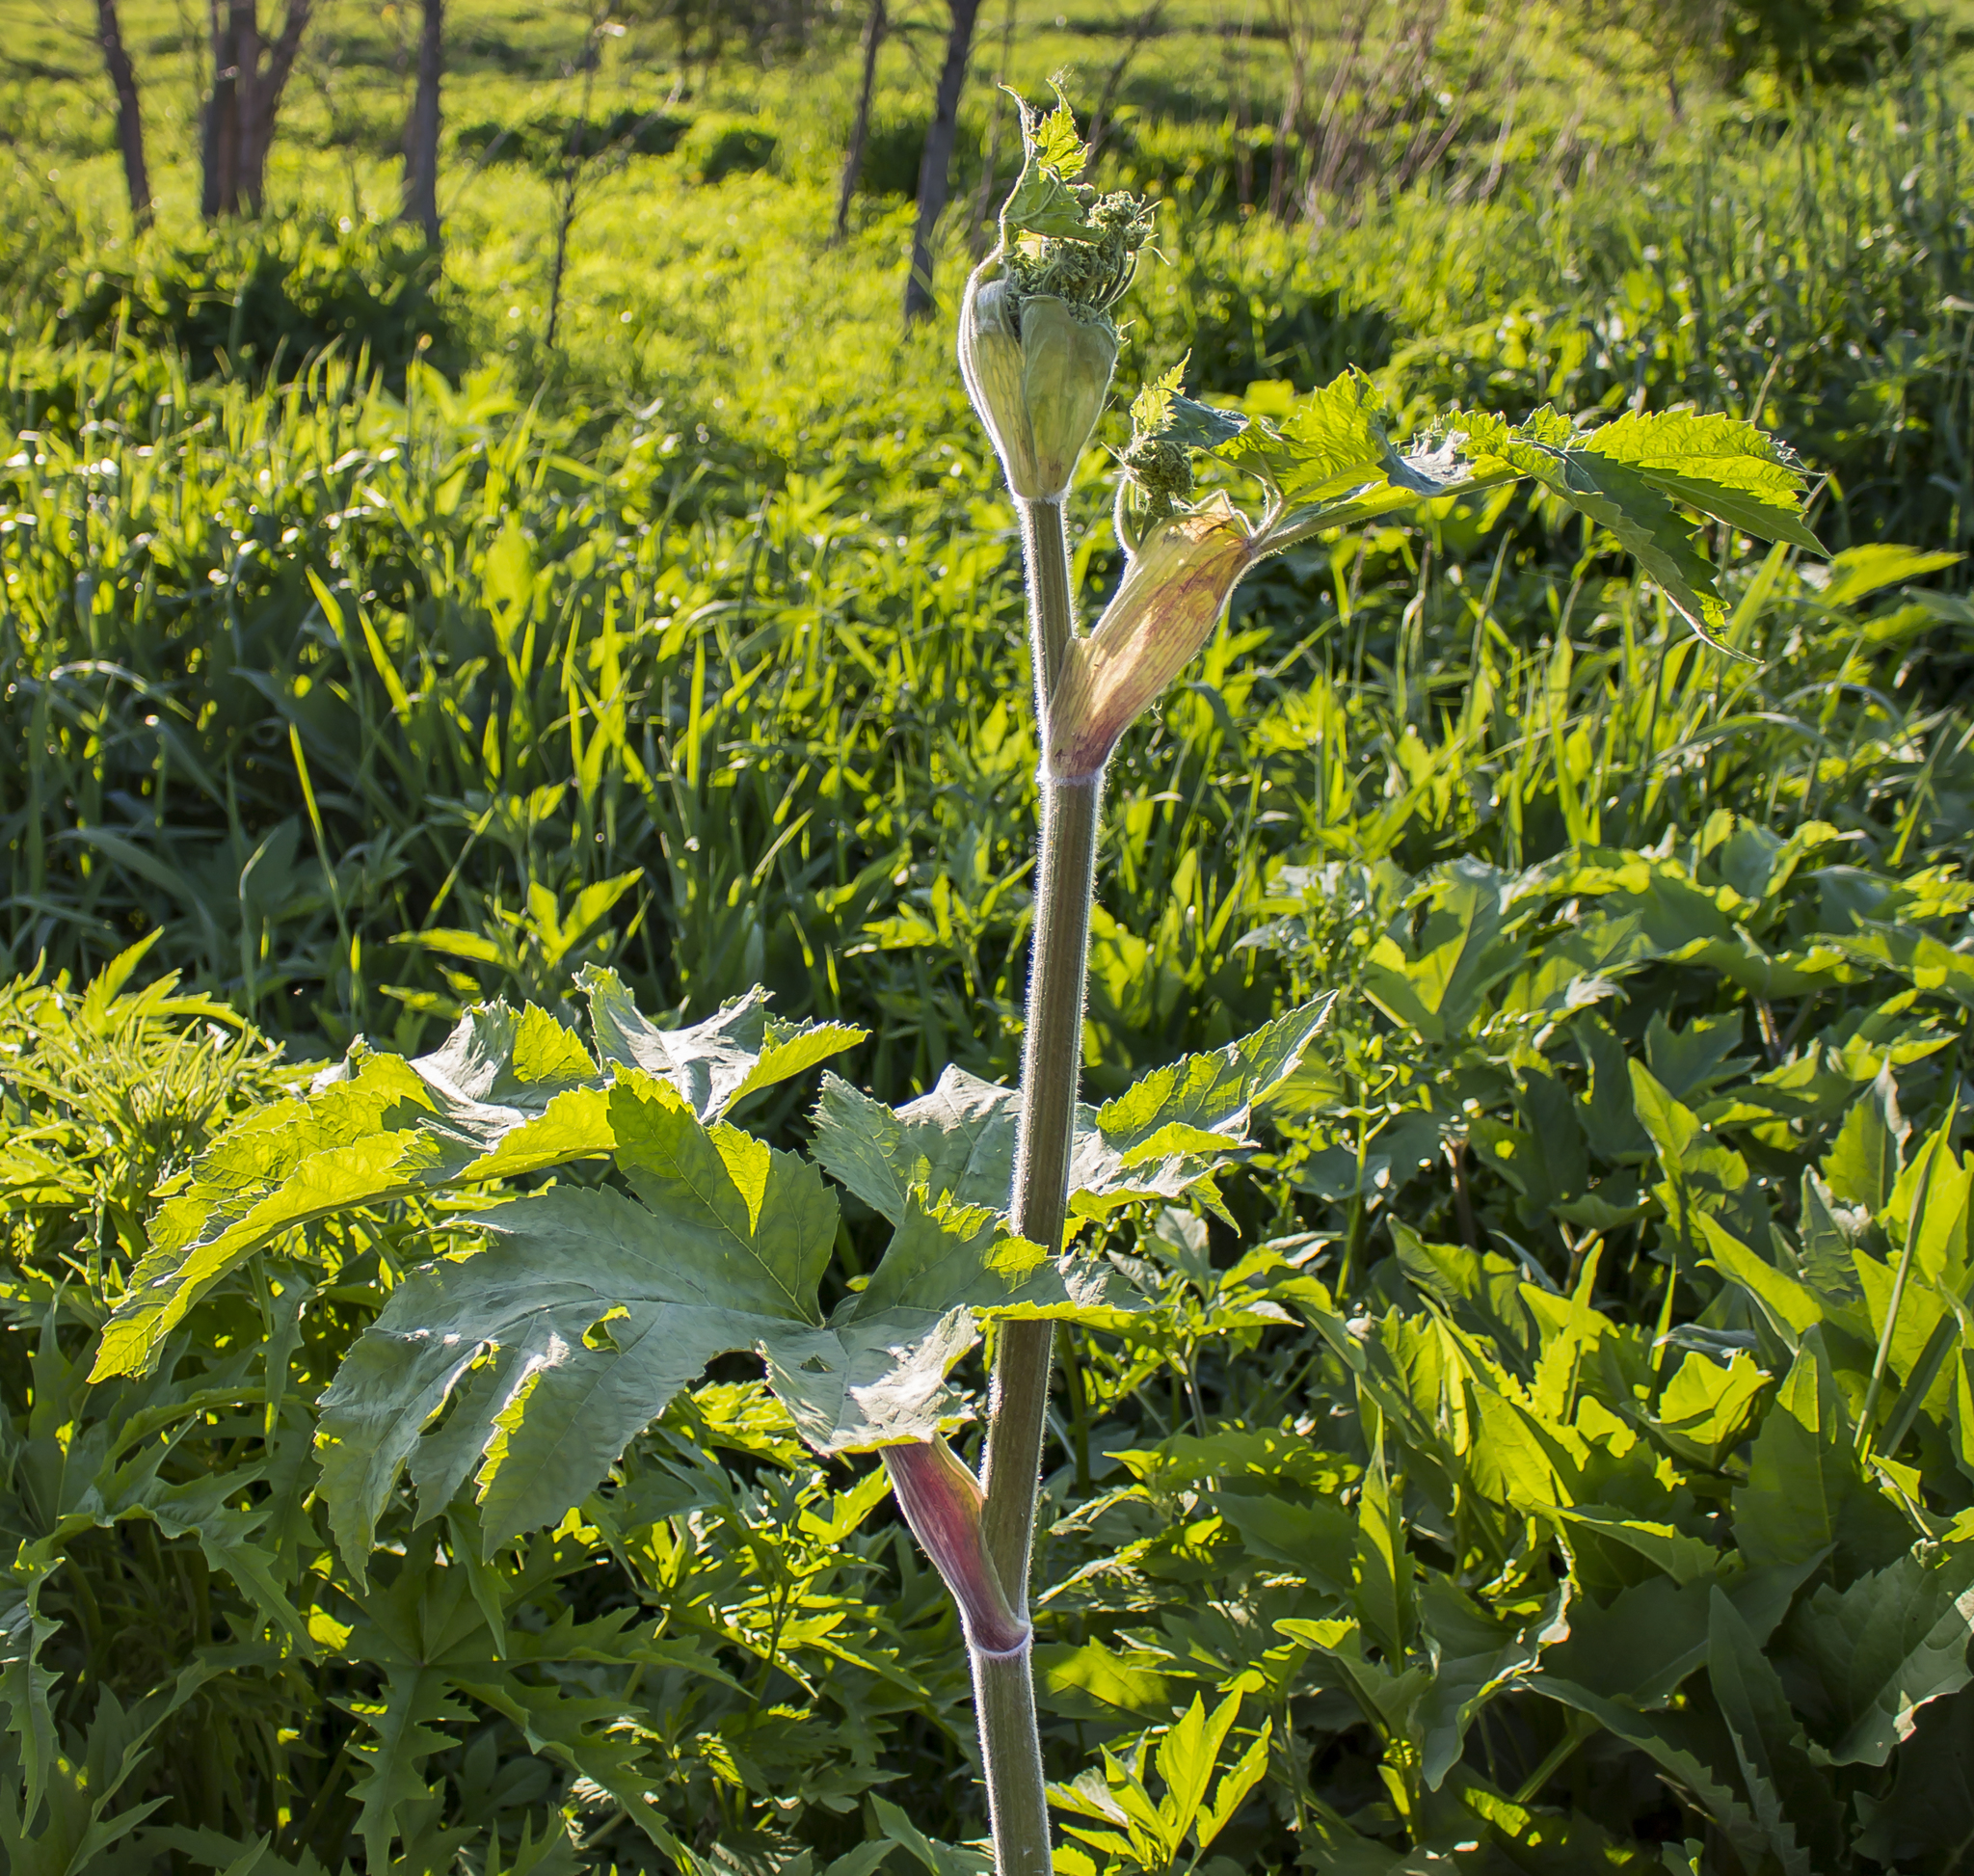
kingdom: Plantae
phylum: Tracheophyta
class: Magnoliopsida
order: Apiales
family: Apiaceae
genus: Heracleum
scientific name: Heracleum maximum
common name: American cow parsnip
